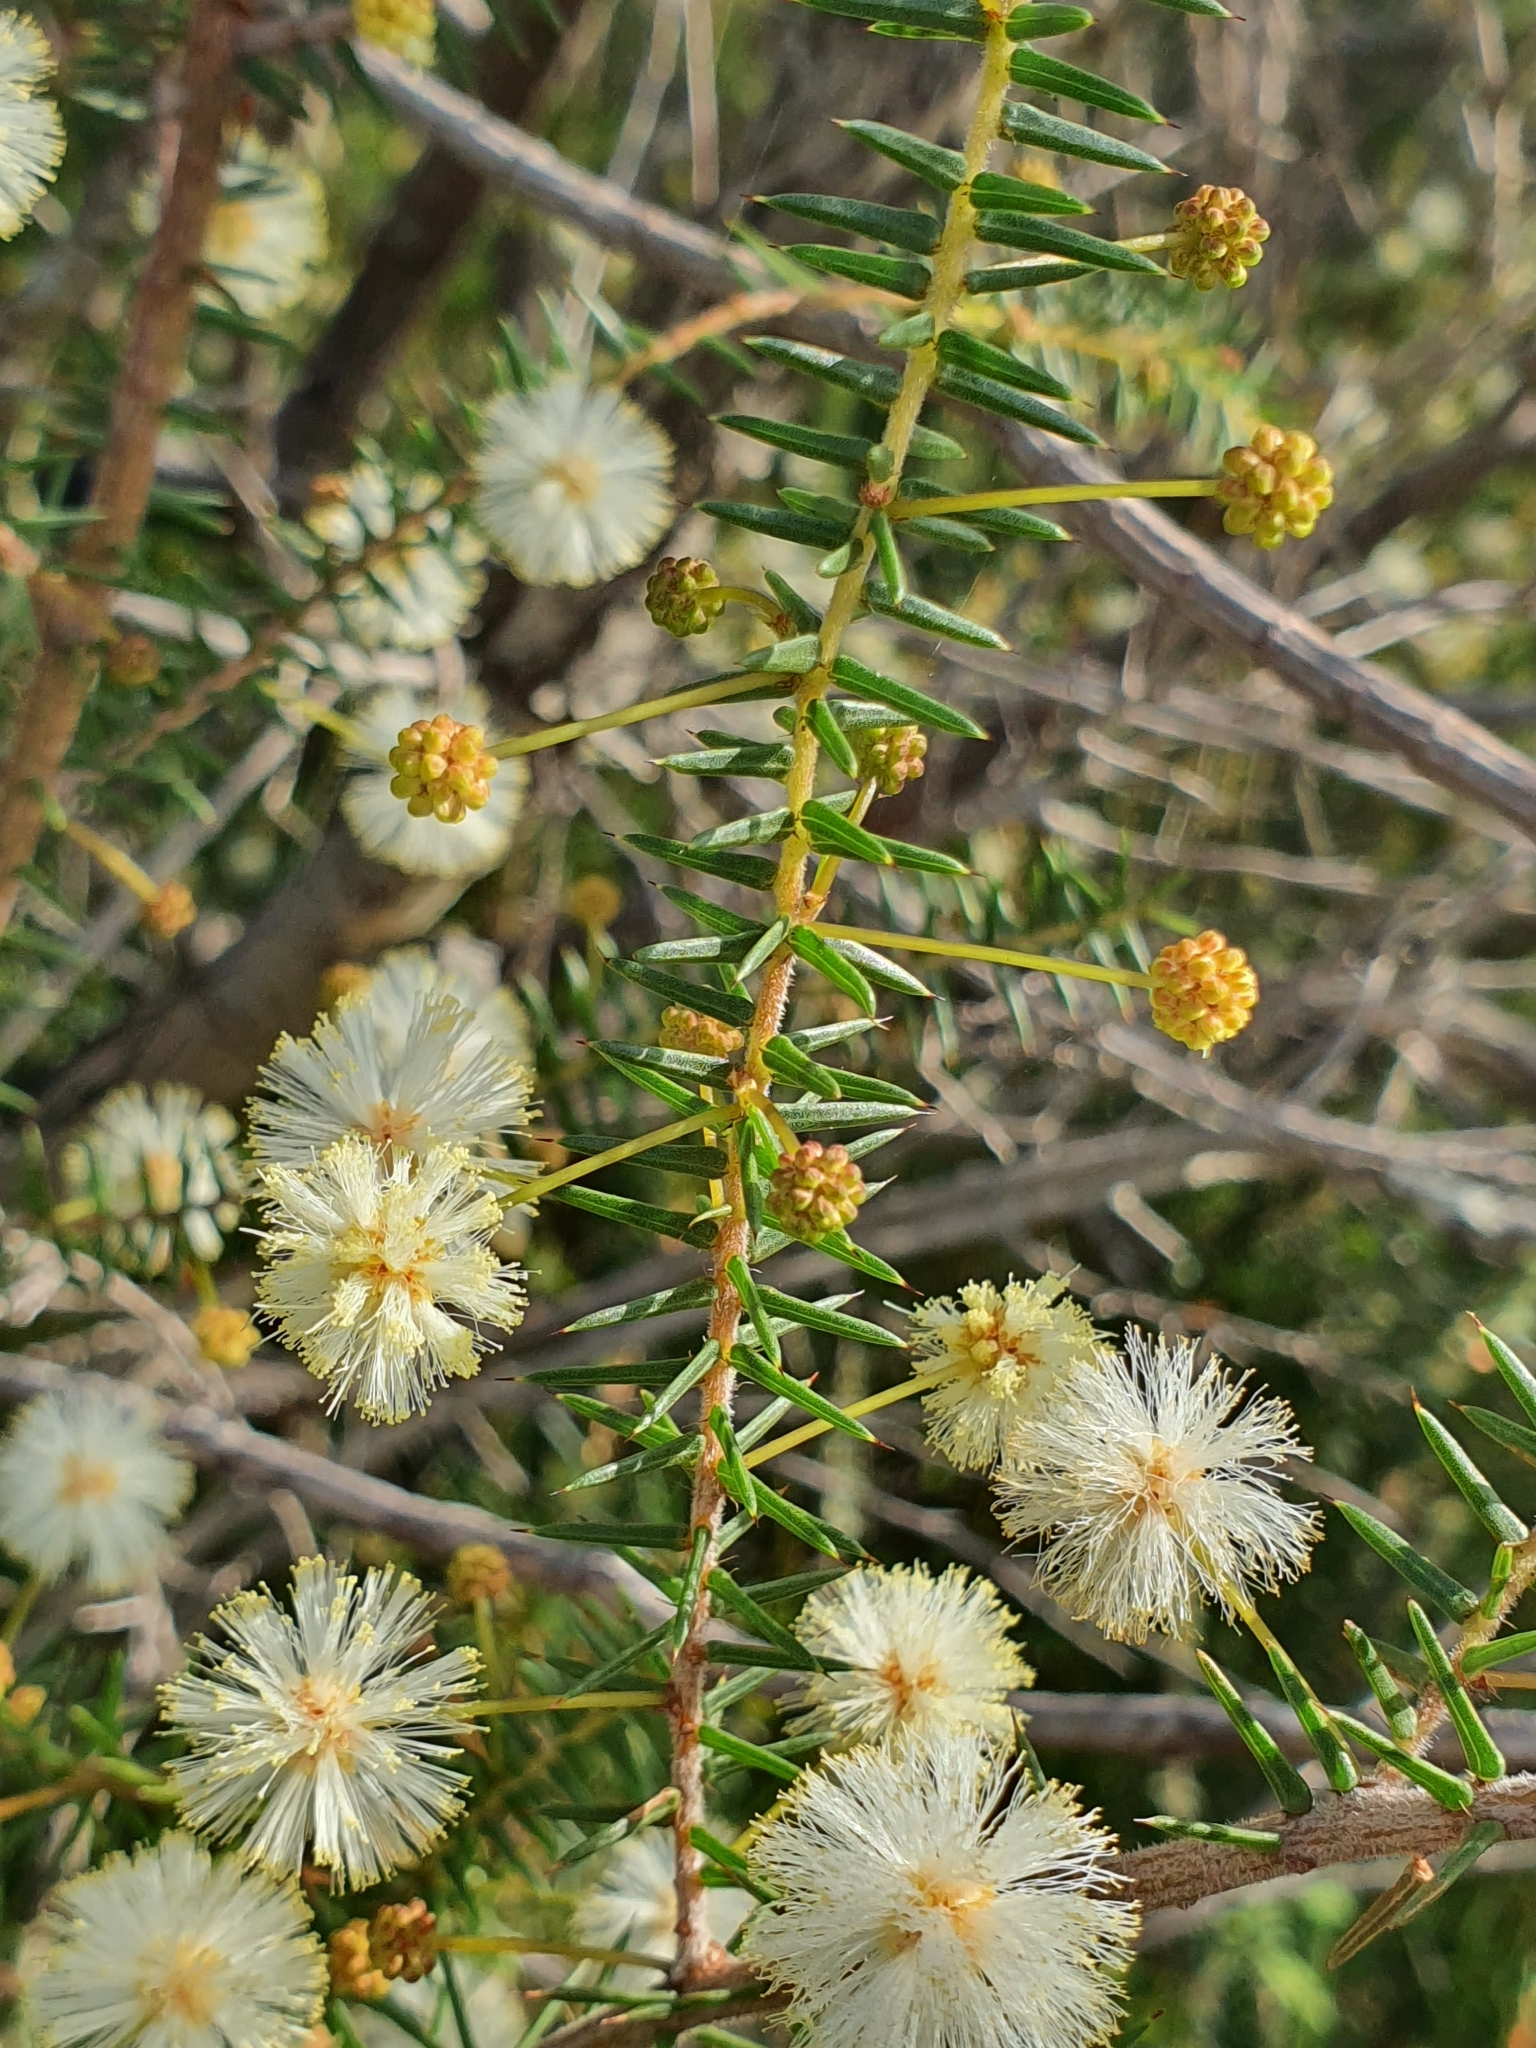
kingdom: Plantae
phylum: Tracheophyta
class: Magnoliopsida
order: Fabales
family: Fabaceae
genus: Acacia
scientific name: Acacia ulicifolia
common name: Juniper wattle
